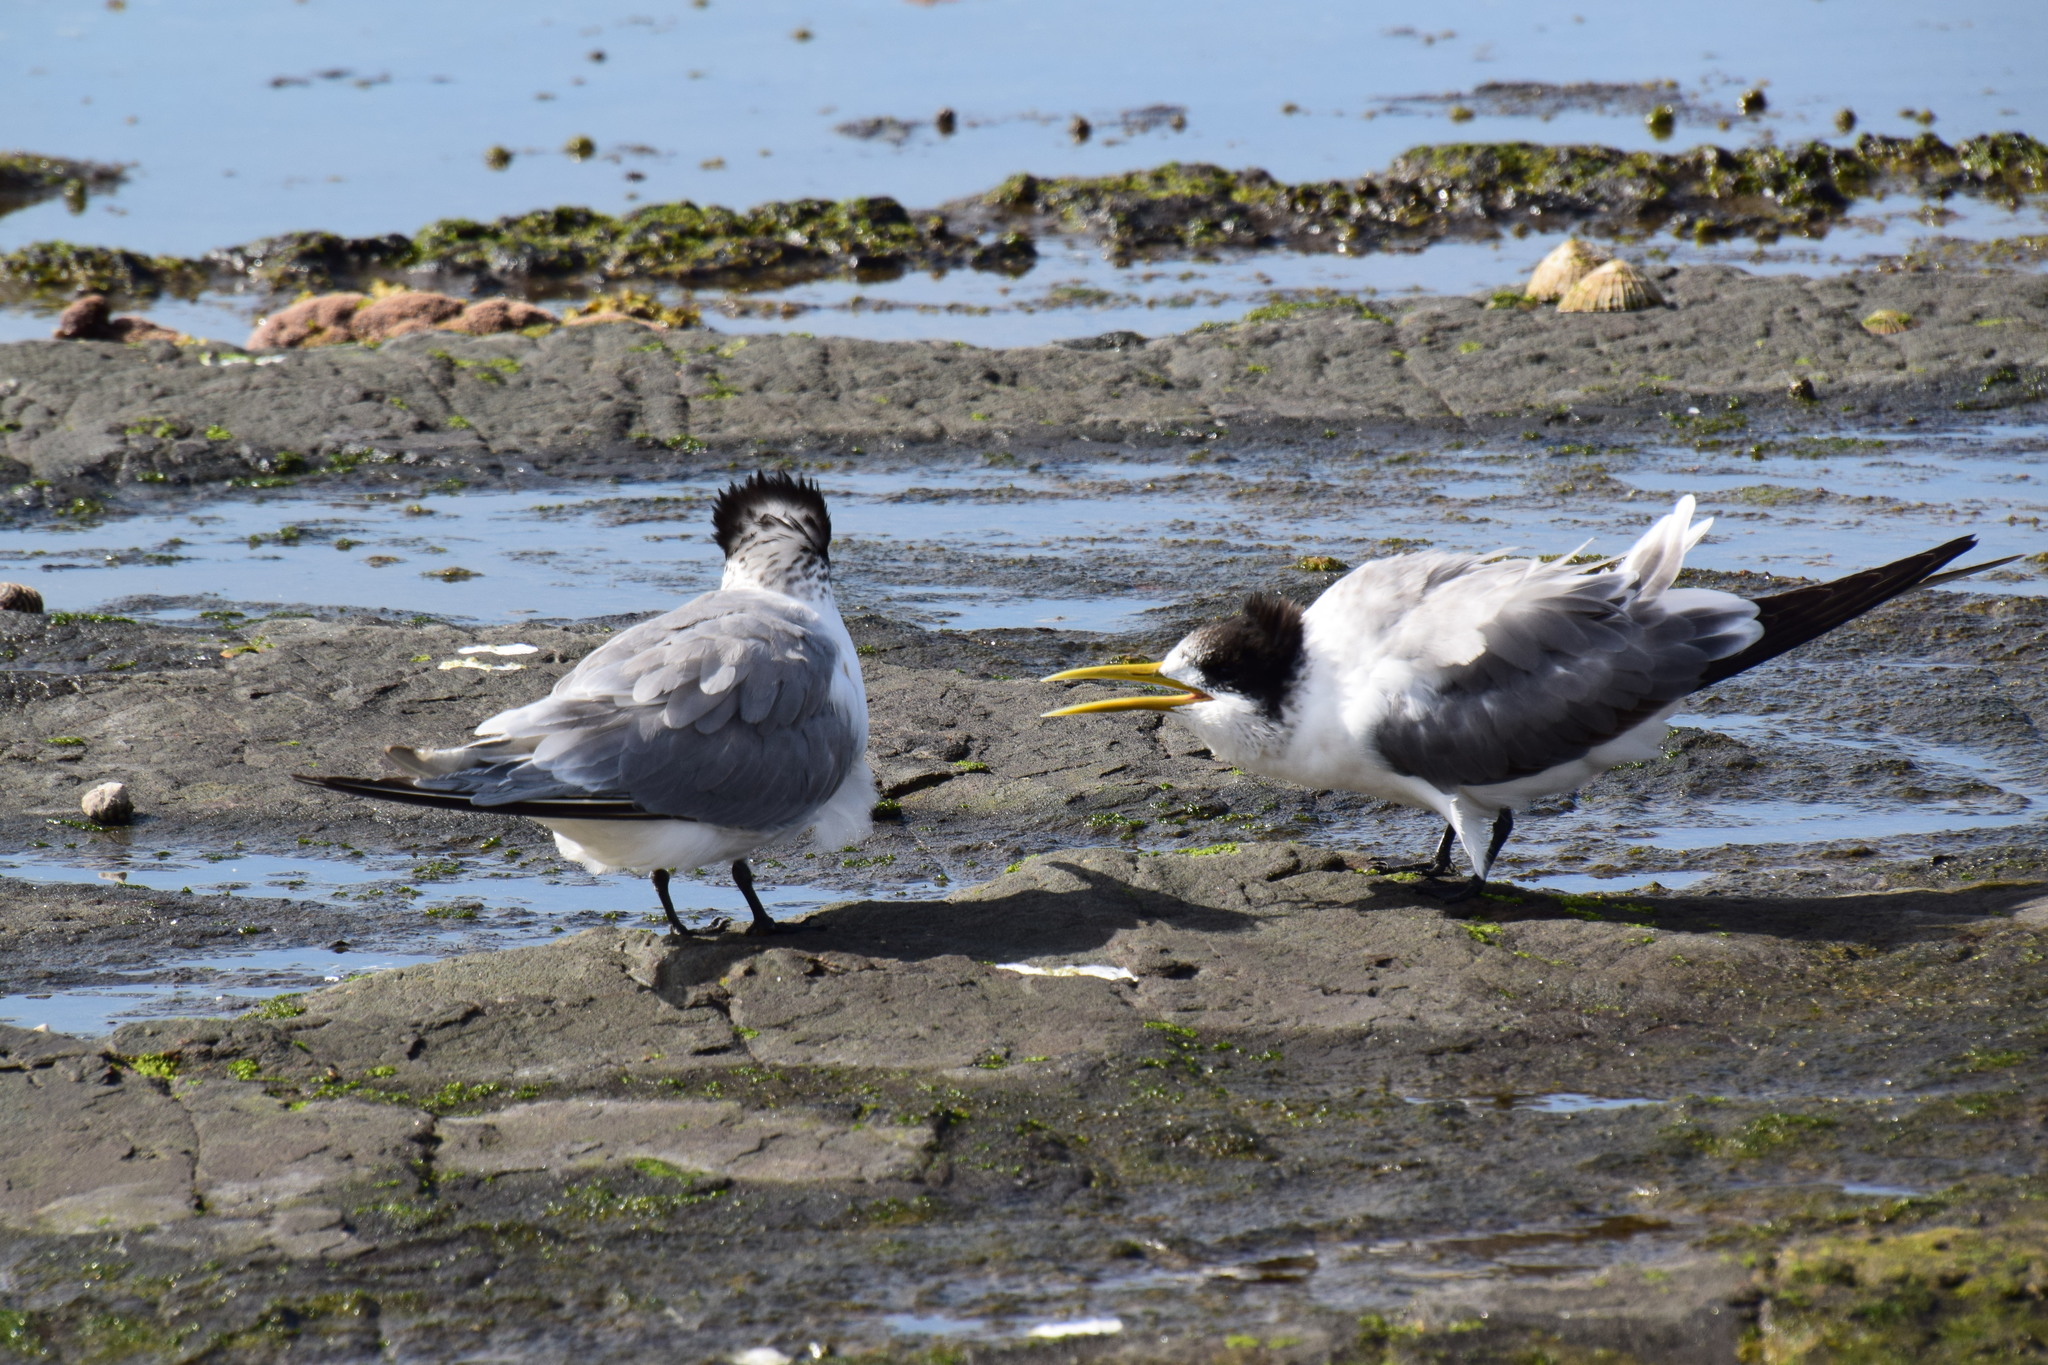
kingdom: Animalia
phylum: Chordata
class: Aves
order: Charadriiformes
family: Laridae
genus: Thalasseus
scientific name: Thalasseus bergii
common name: Greater crested tern
